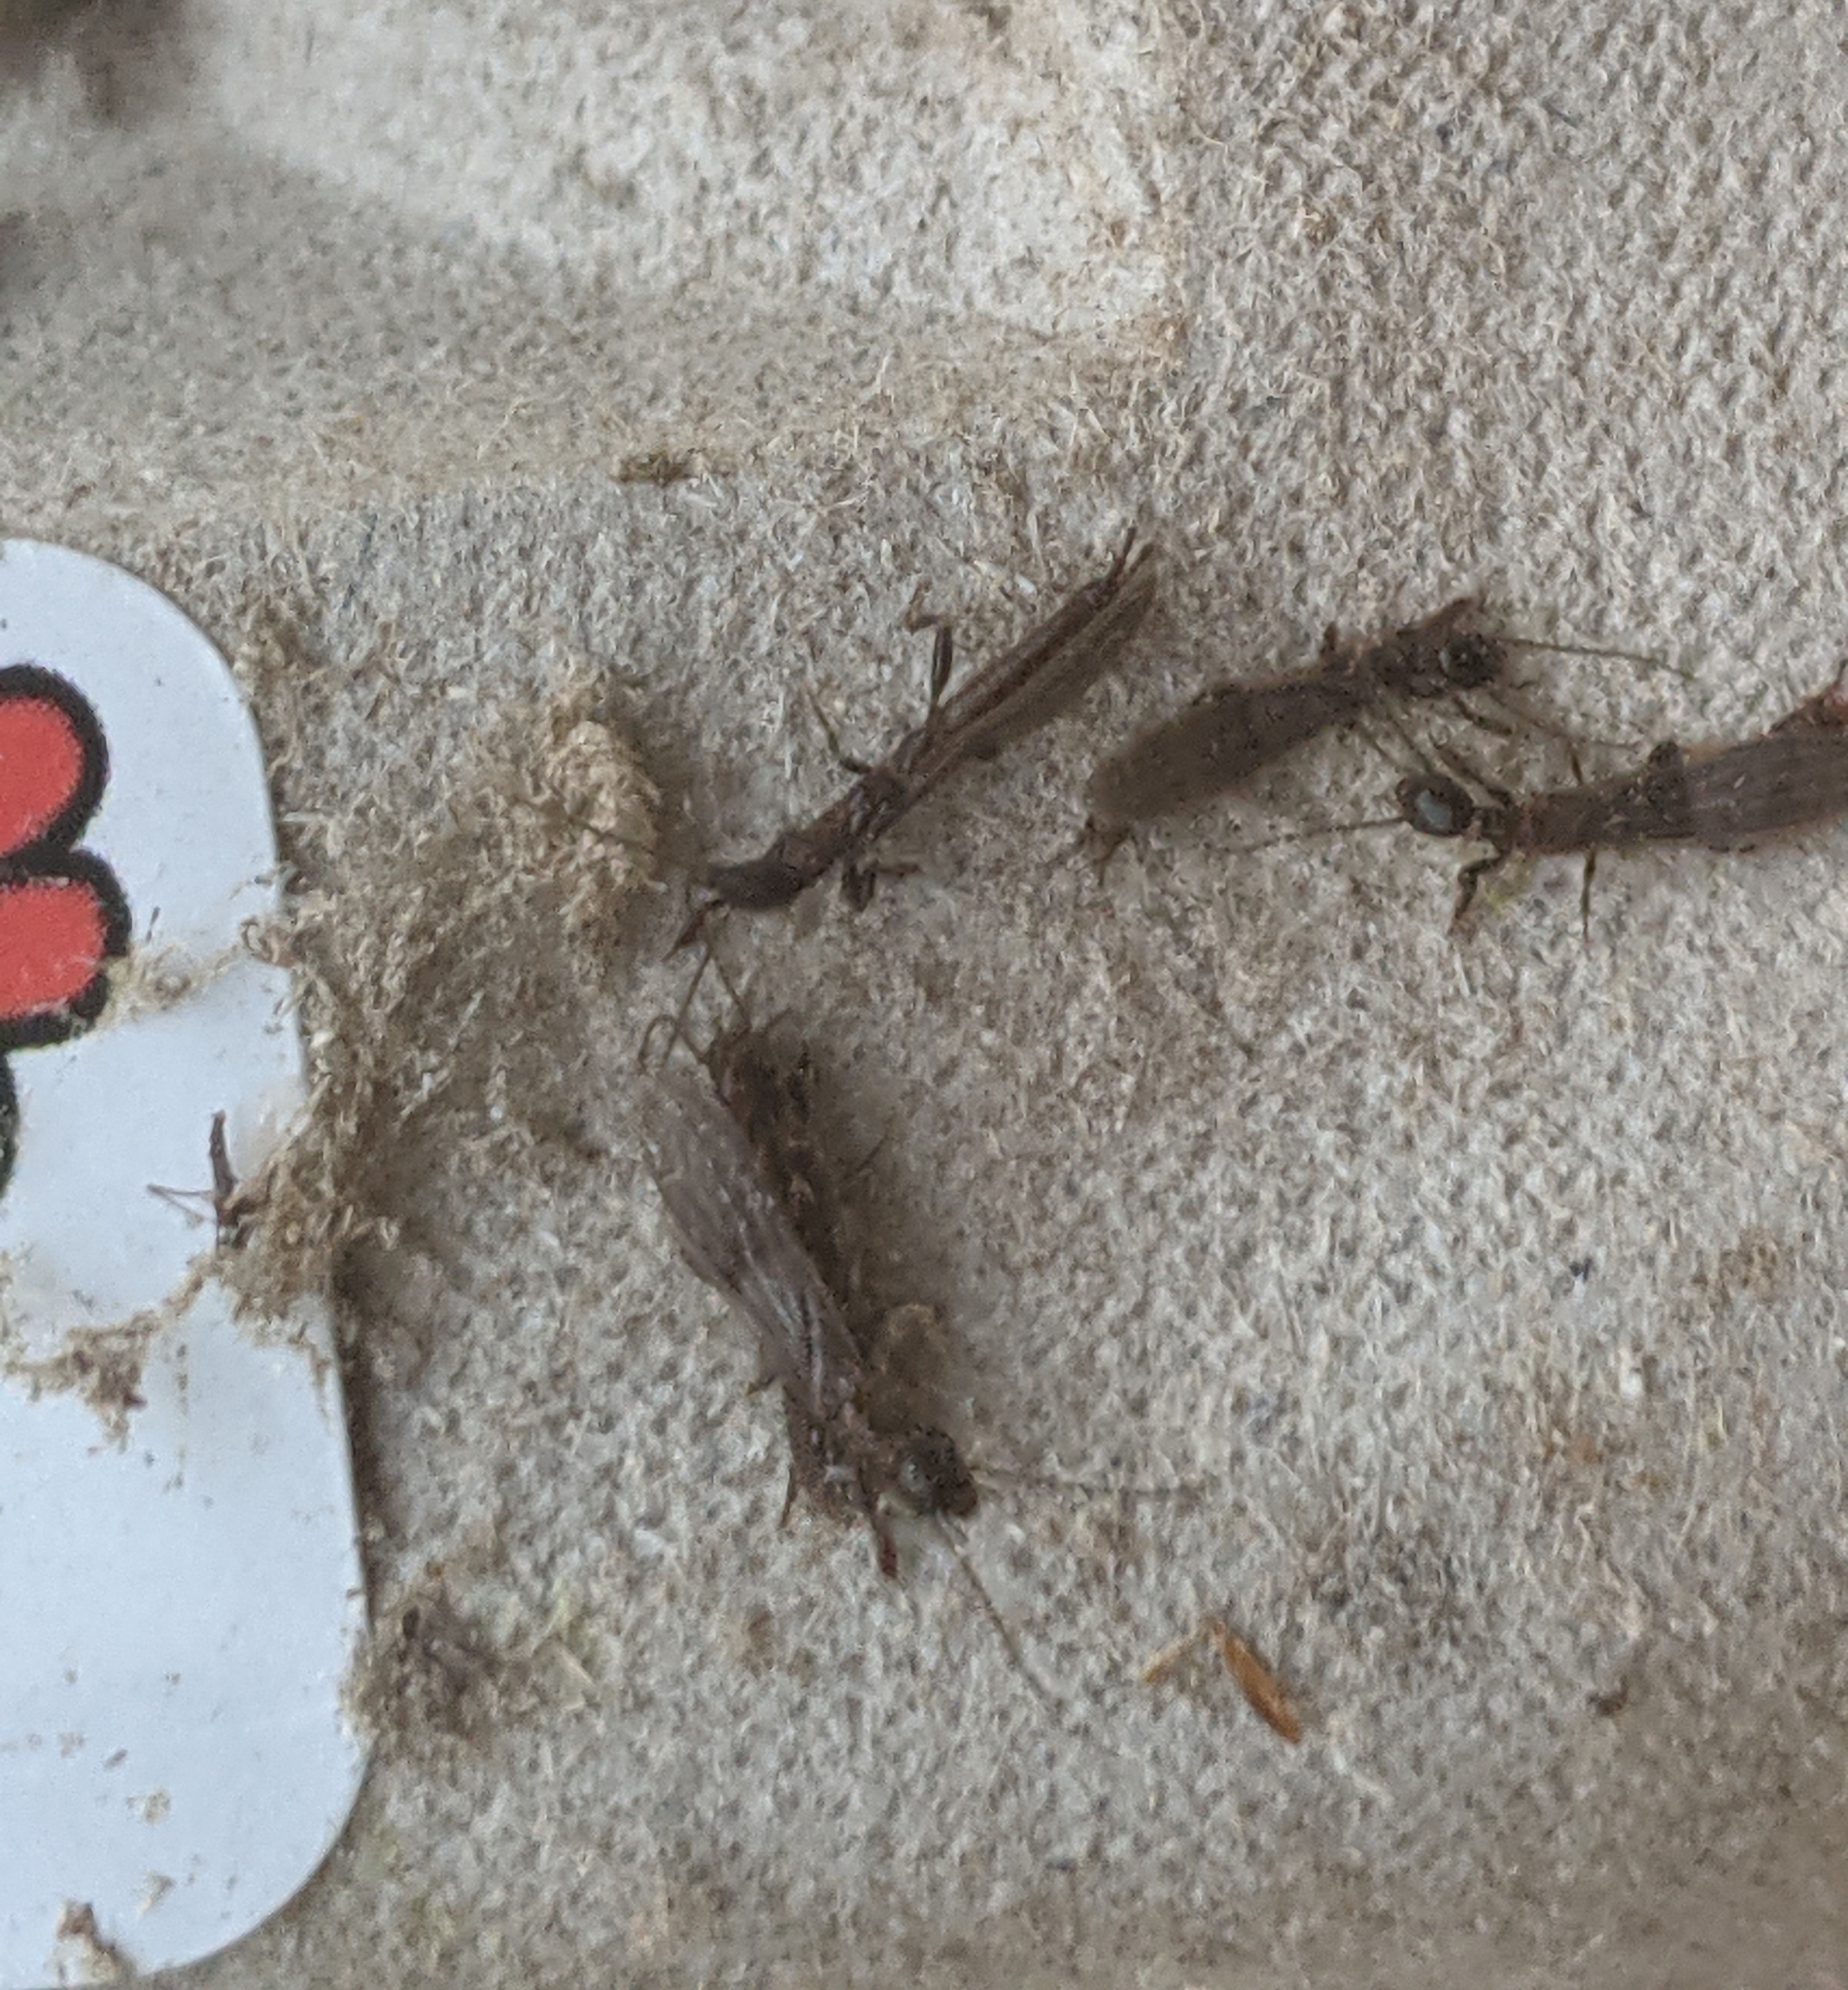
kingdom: Animalia
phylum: Arthropoda
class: Insecta
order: Embioptera
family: Oligotomidae
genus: Oligotoma
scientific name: Oligotoma nigra
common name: Black webspinner
